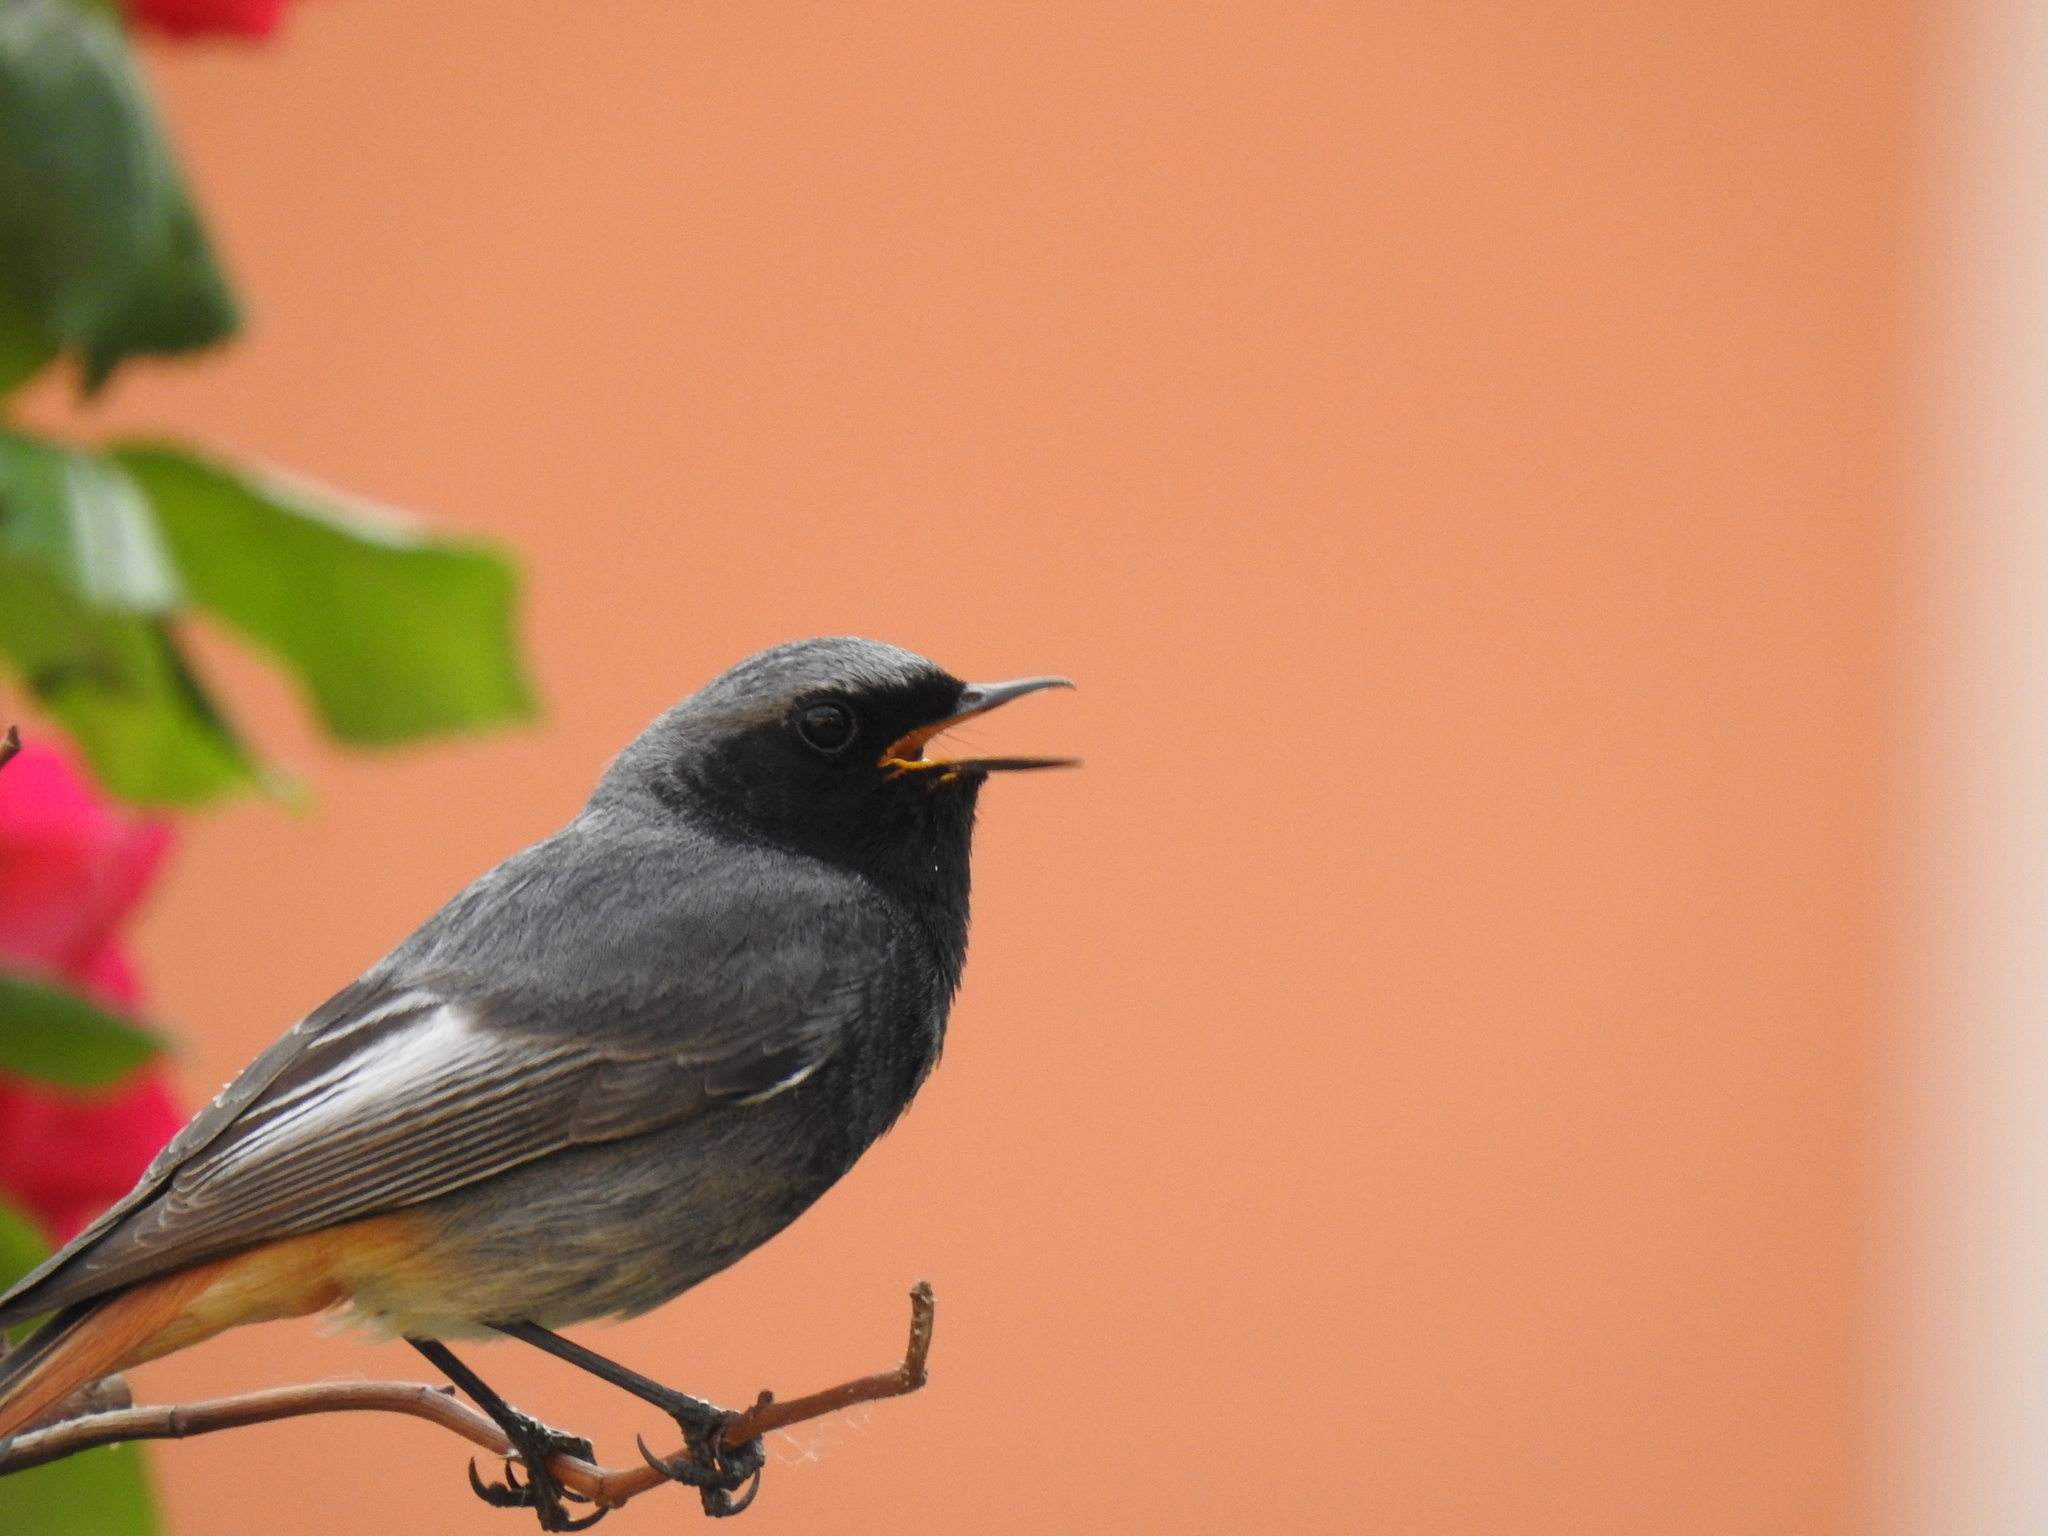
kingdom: Animalia
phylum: Chordata
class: Aves
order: Passeriformes
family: Muscicapidae
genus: Phoenicurus
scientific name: Phoenicurus ochruros
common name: Black redstart
